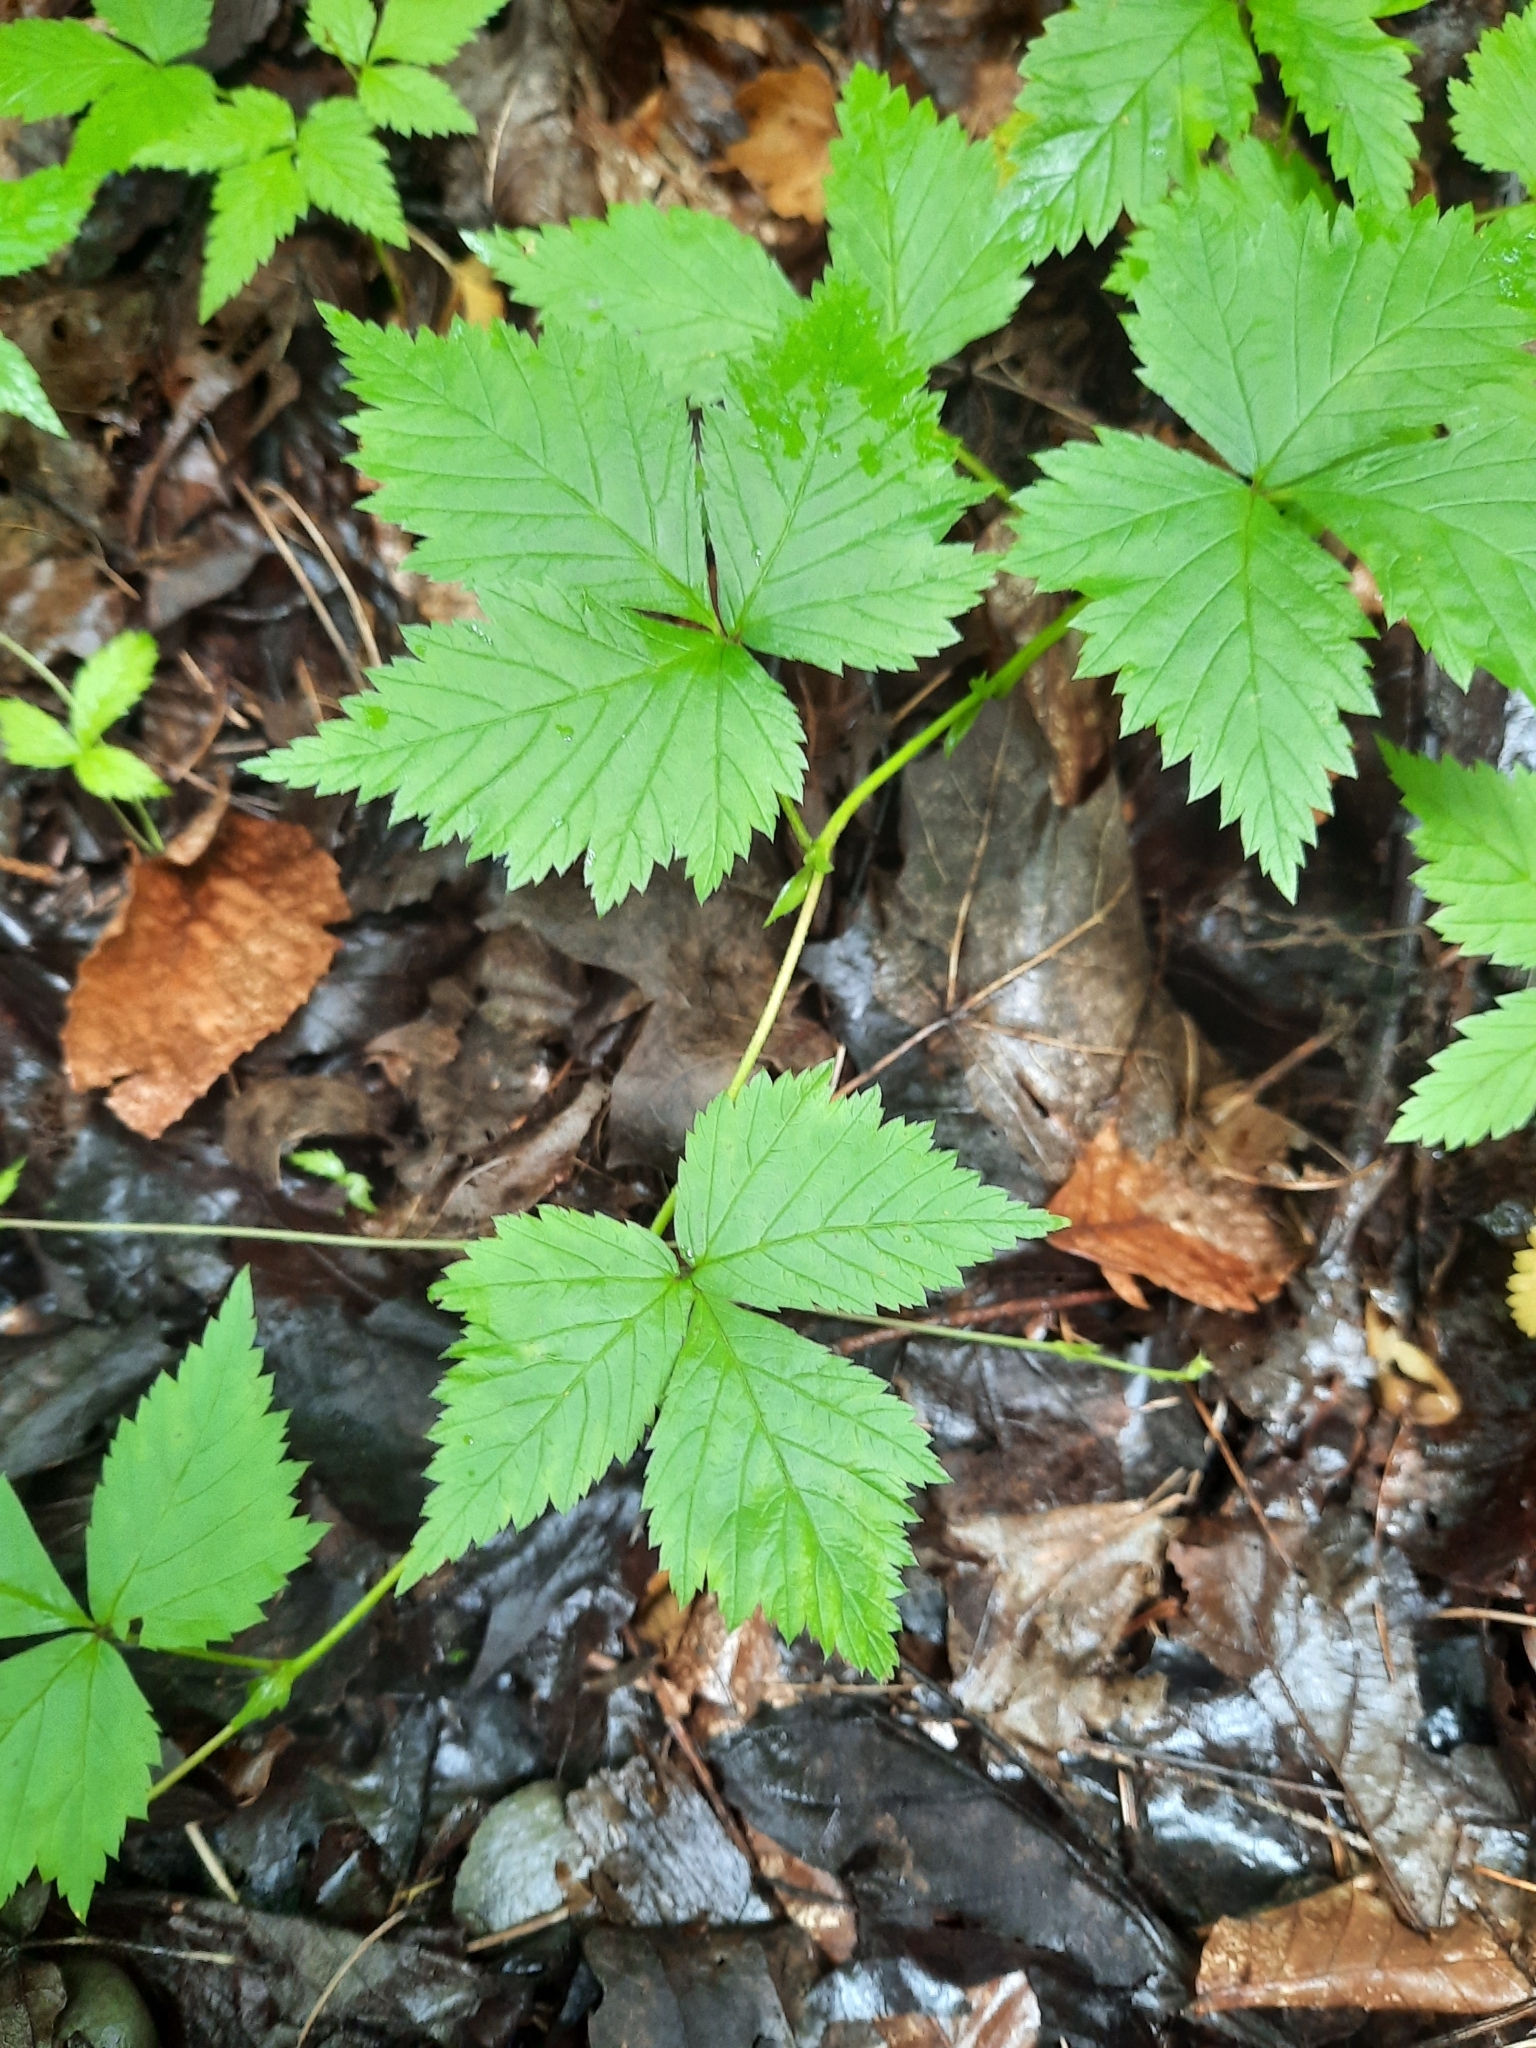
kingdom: Plantae
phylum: Tracheophyta
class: Magnoliopsida
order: Rosales
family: Rosaceae
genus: Rubus
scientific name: Rubus pubescens
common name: Dwarf raspberry
